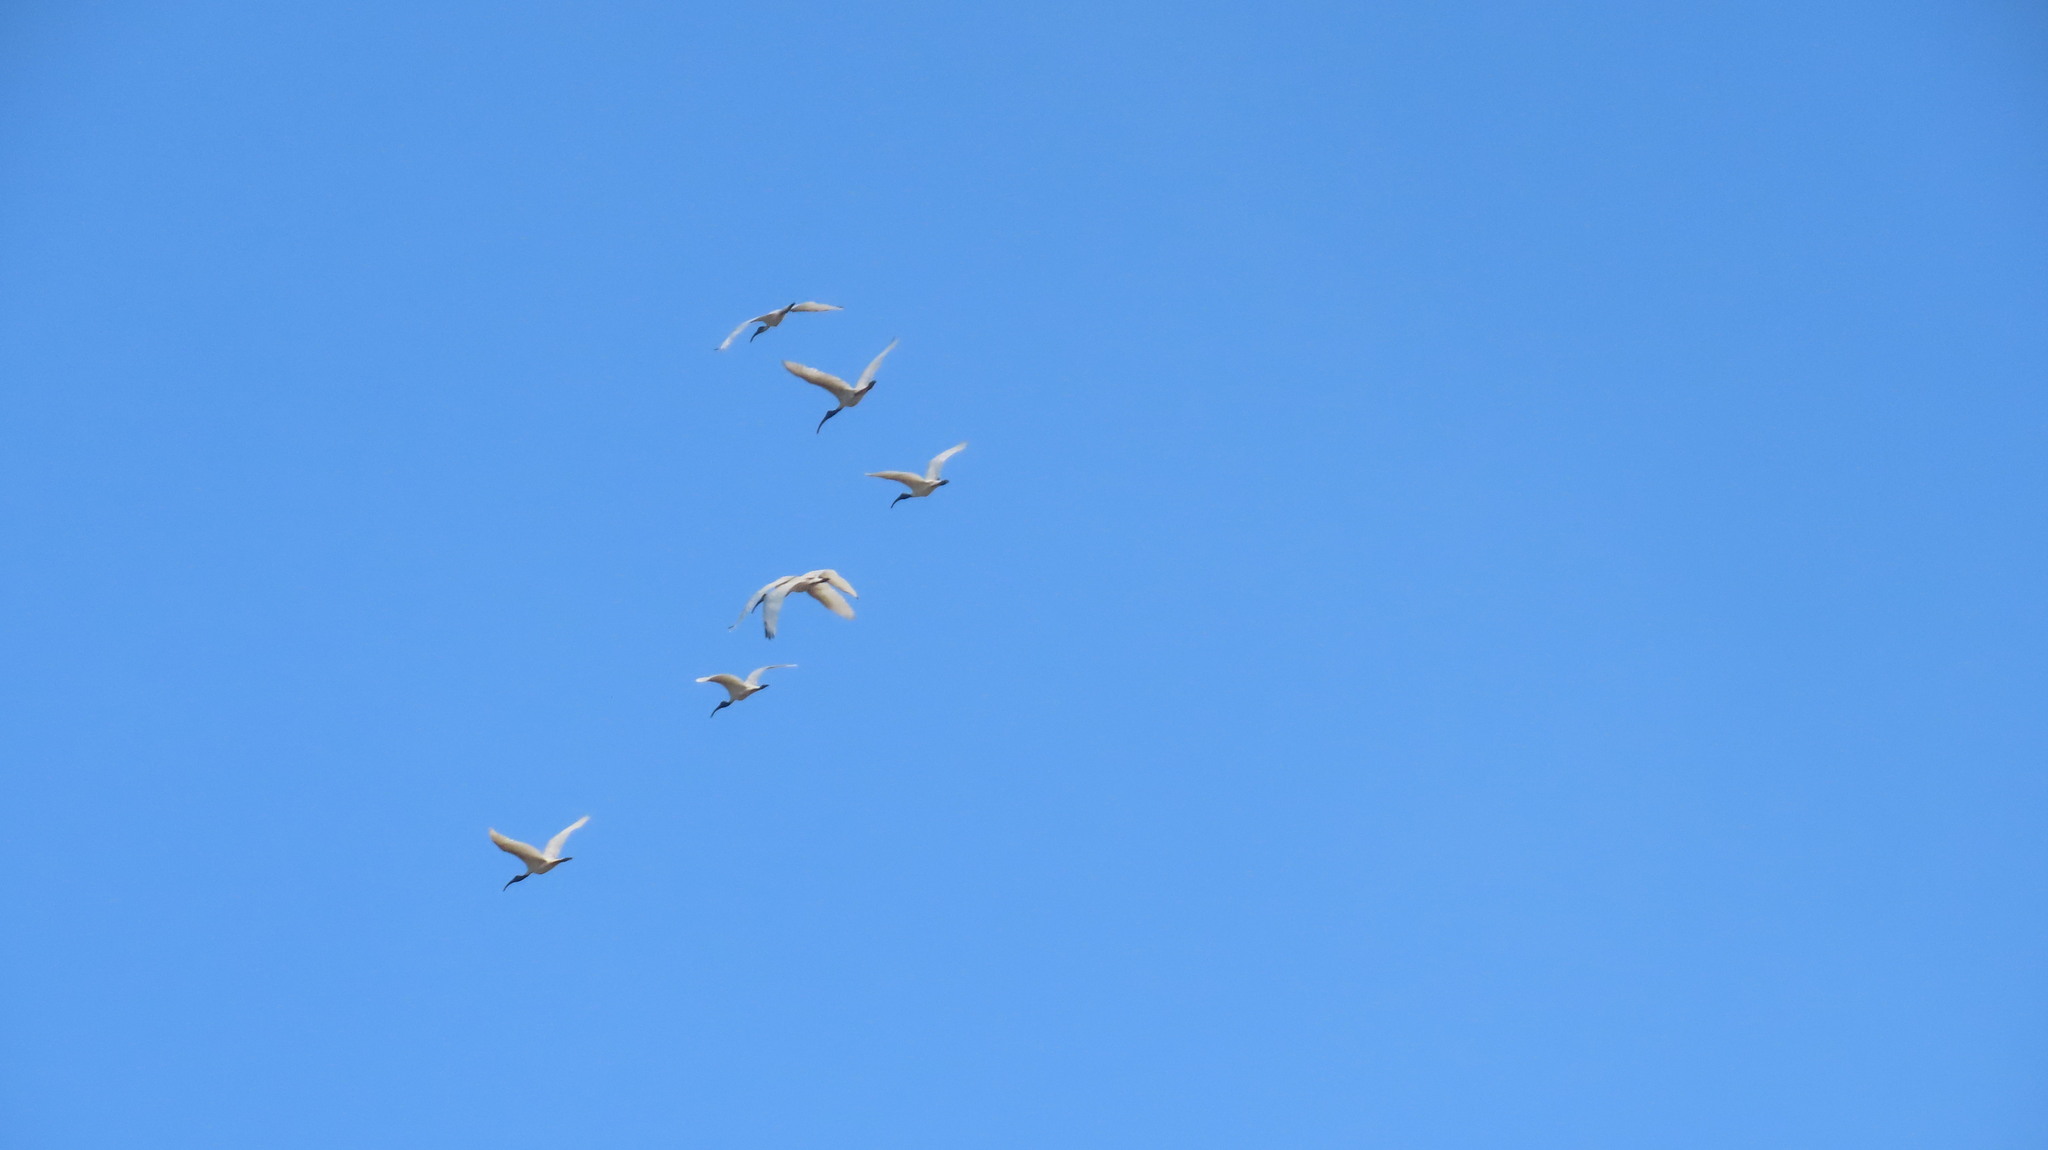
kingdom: Animalia
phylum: Chordata
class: Aves
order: Pelecaniformes
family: Threskiornithidae
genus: Threskiornis
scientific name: Threskiornis melanocephalus
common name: Black-headed ibis
